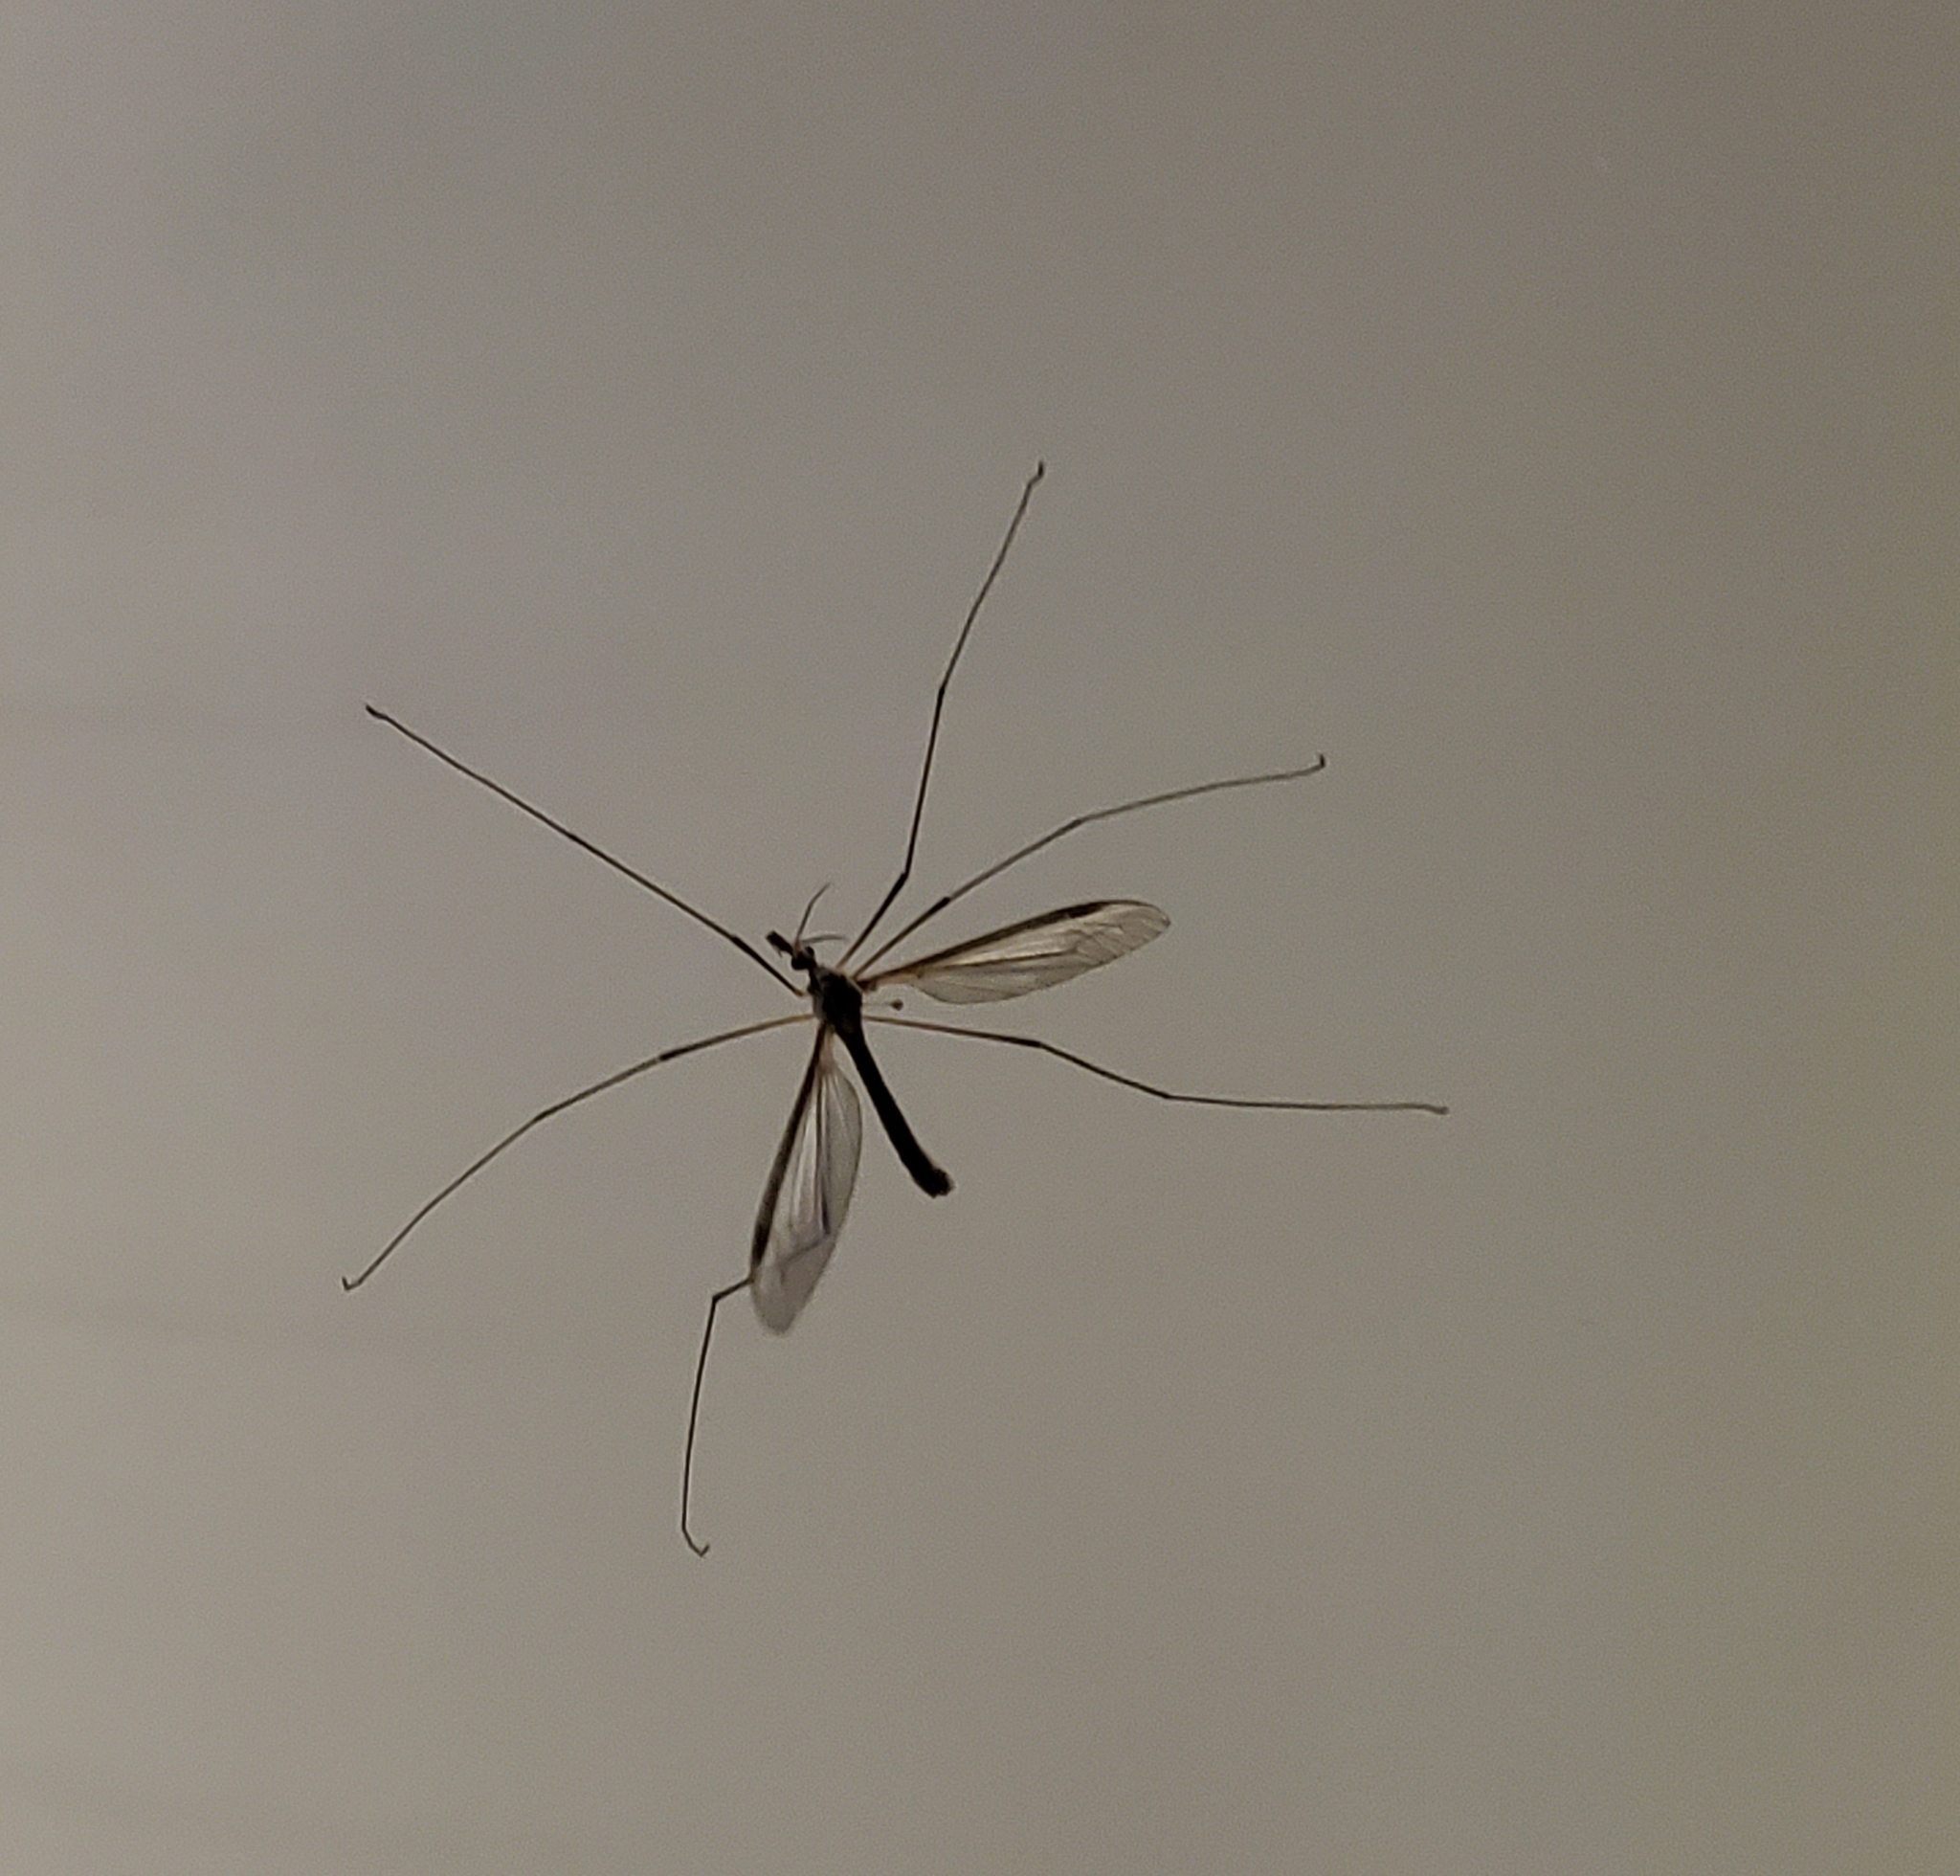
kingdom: Animalia
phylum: Arthropoda
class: Insecta
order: Diptera
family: Tipulidae
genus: Tipula
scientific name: Tipula
